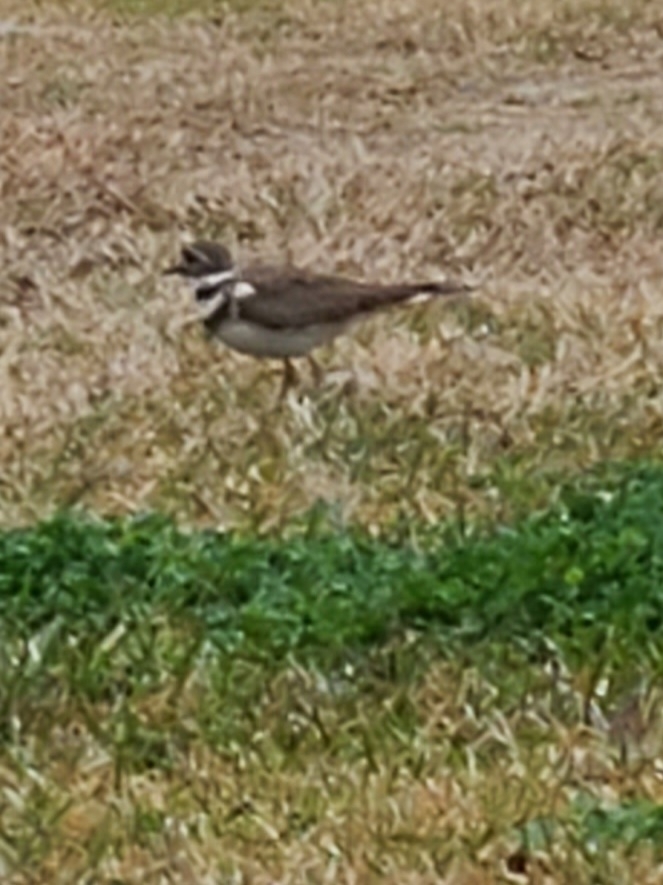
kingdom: Animalia
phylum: Chordata
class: Aves
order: Charadriiformes
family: Charadriidae
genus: Charadrius
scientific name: Charadrius vociferus
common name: Killdeer
